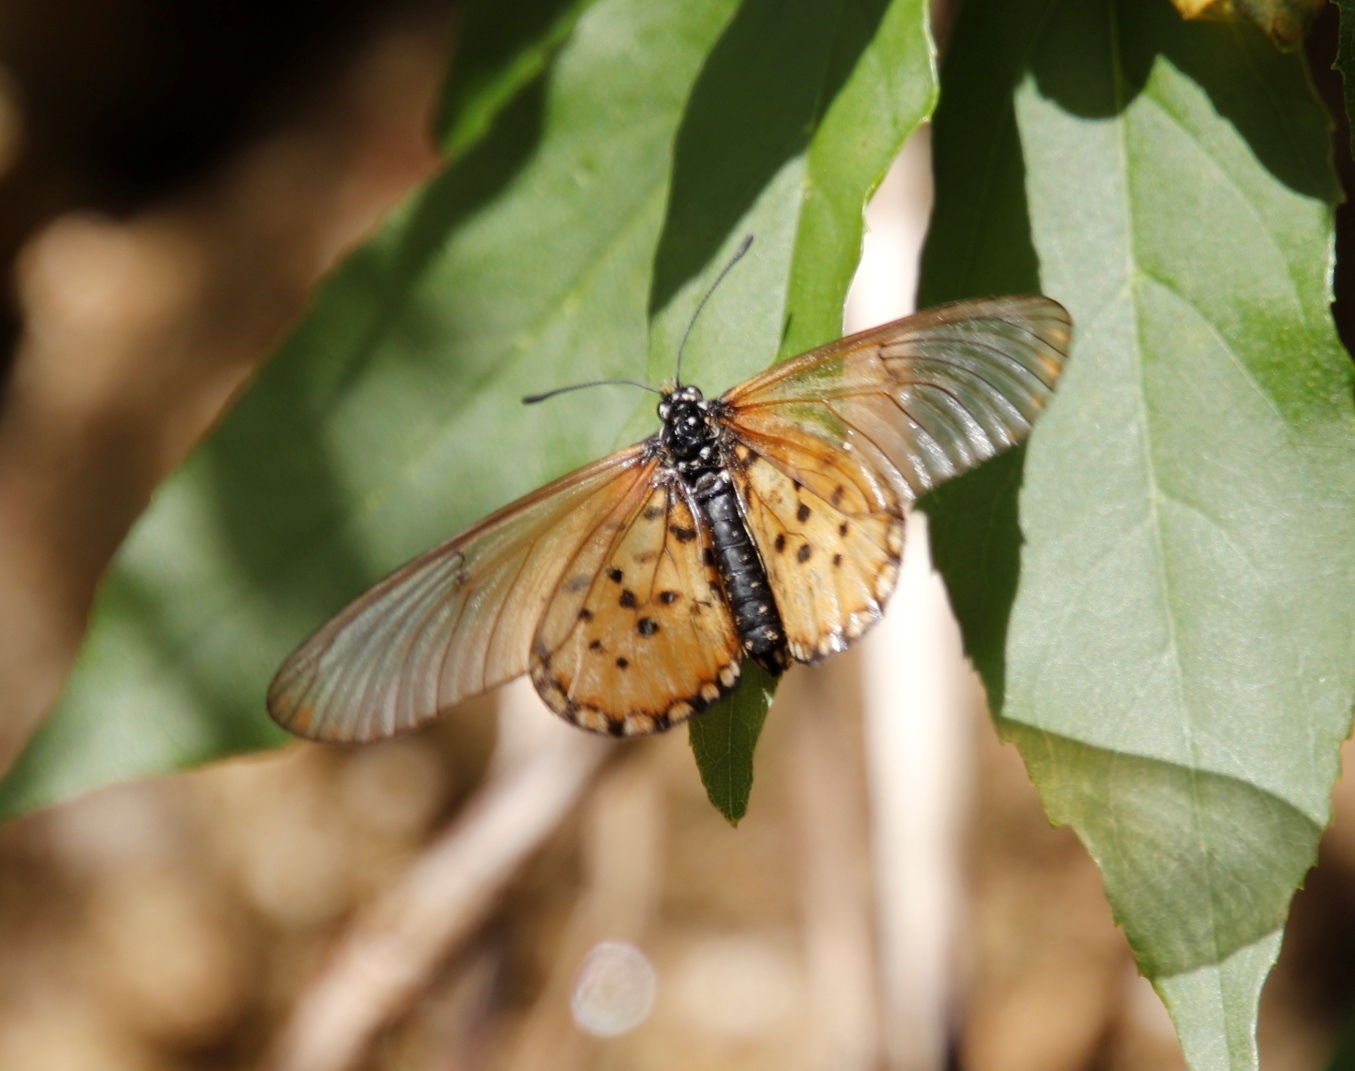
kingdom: Animalia
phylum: Arthropoda
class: Insecta
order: Lepidoptera
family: Nymphalidae
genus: Acraea
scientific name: Acraea horta
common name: Garden acraea
